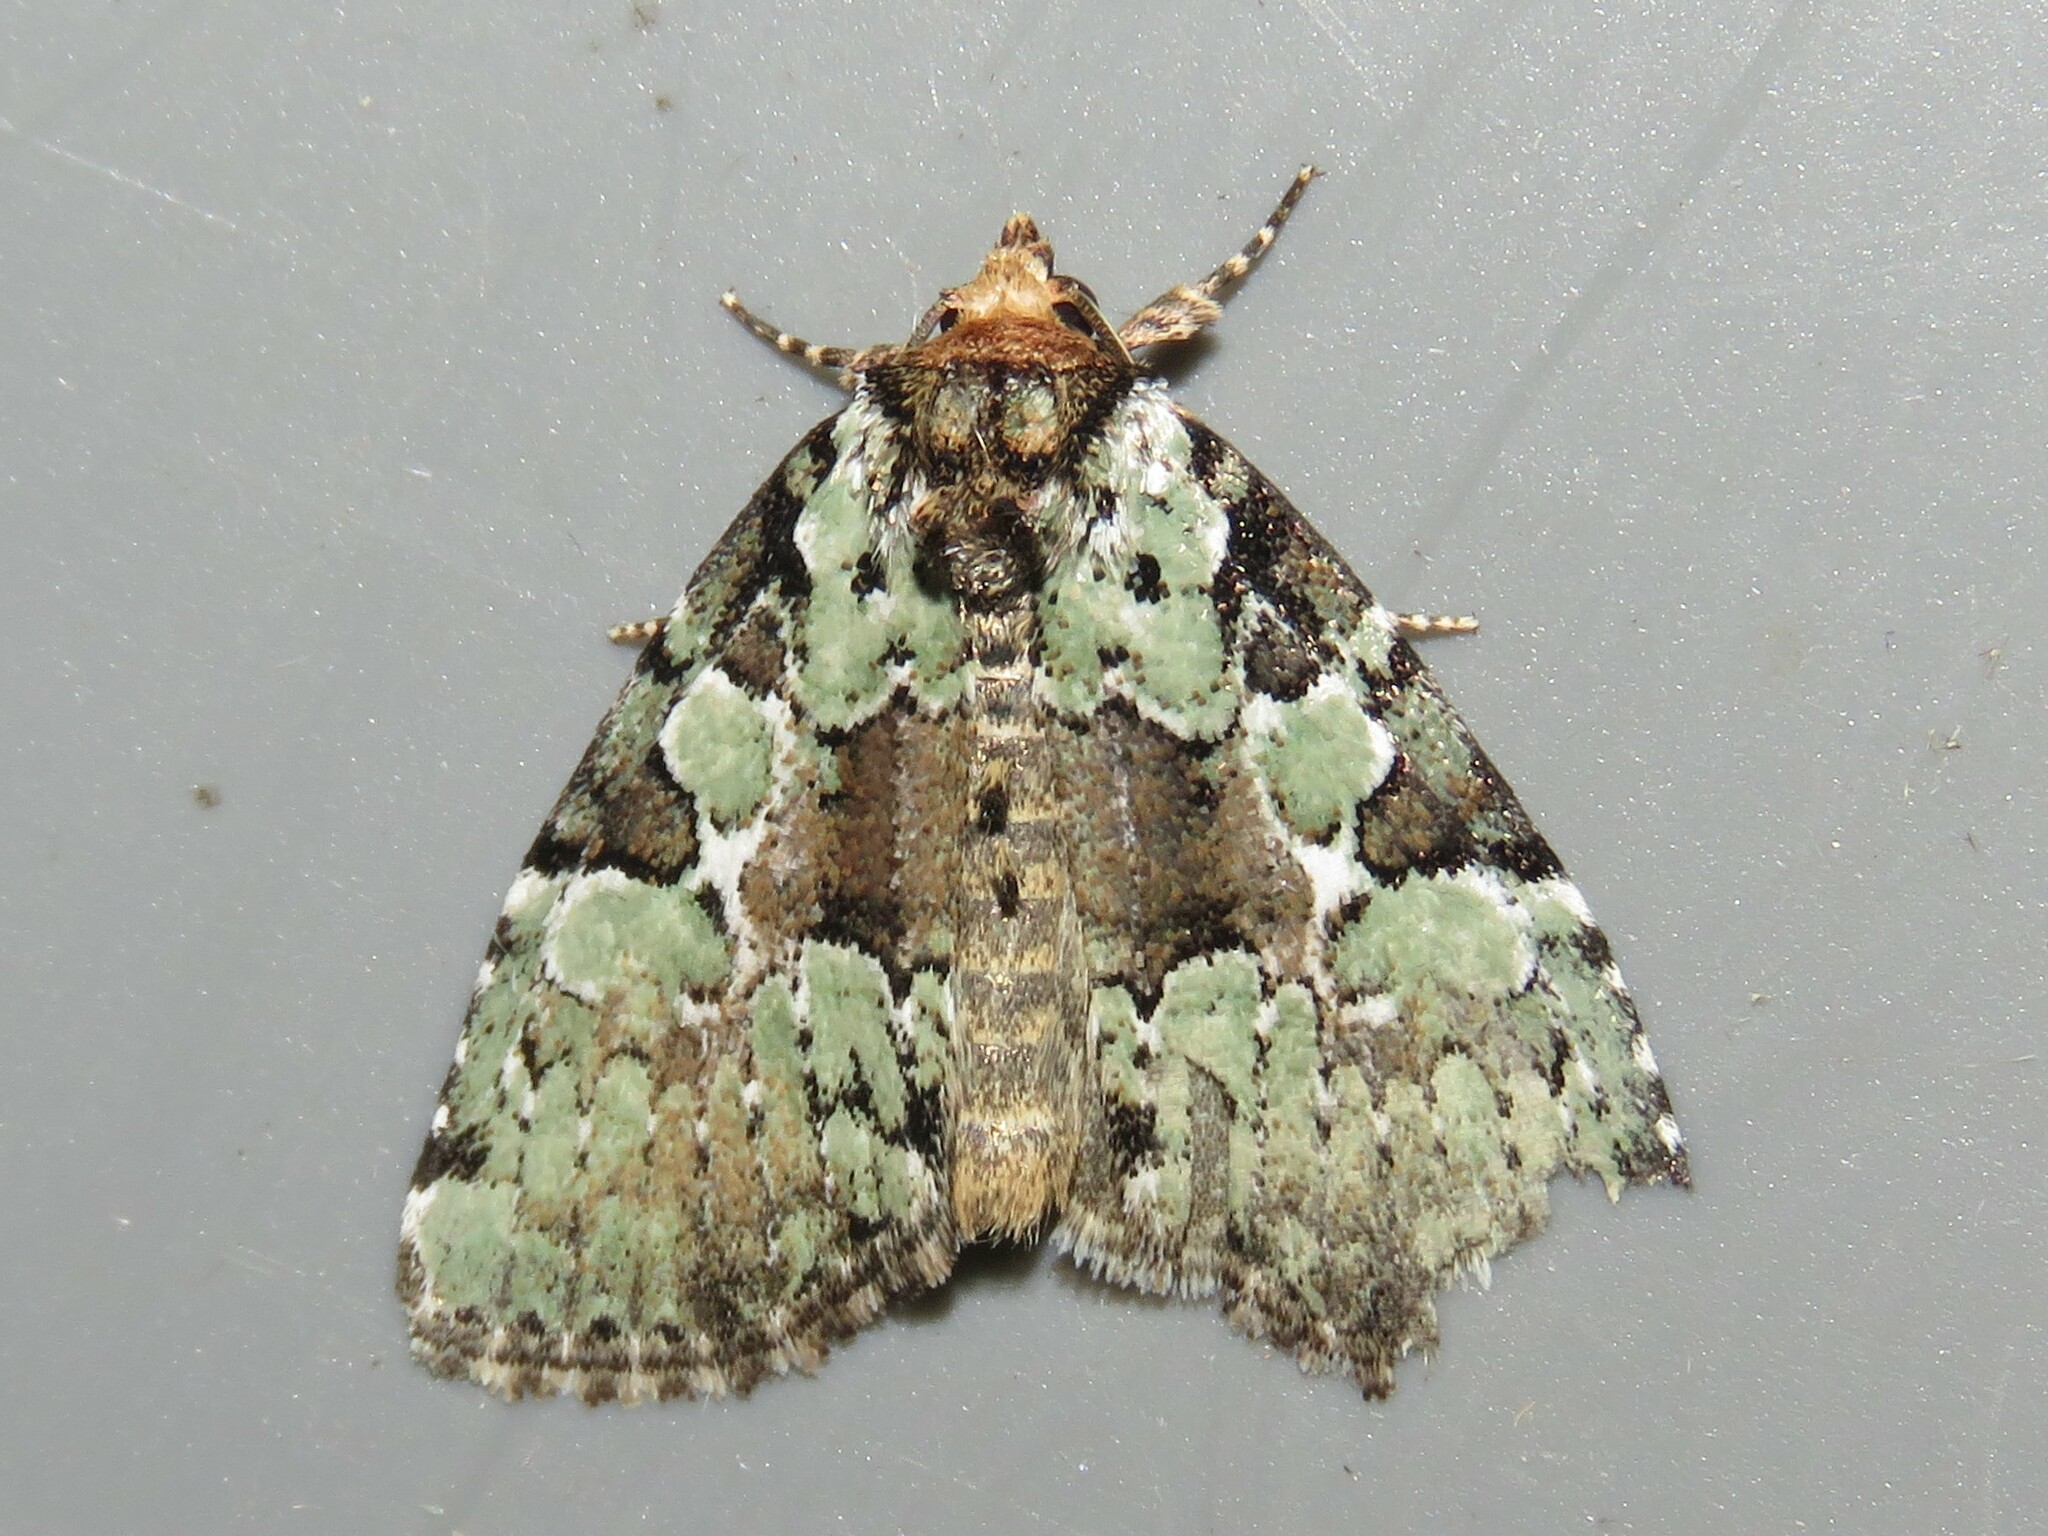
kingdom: Animalia
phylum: Arthropoda
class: Insecta
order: Lepidoptera
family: Noctuidae
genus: Leuconycta
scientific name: Leuconycta lepidula
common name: Marbled-green leuconycta moth
